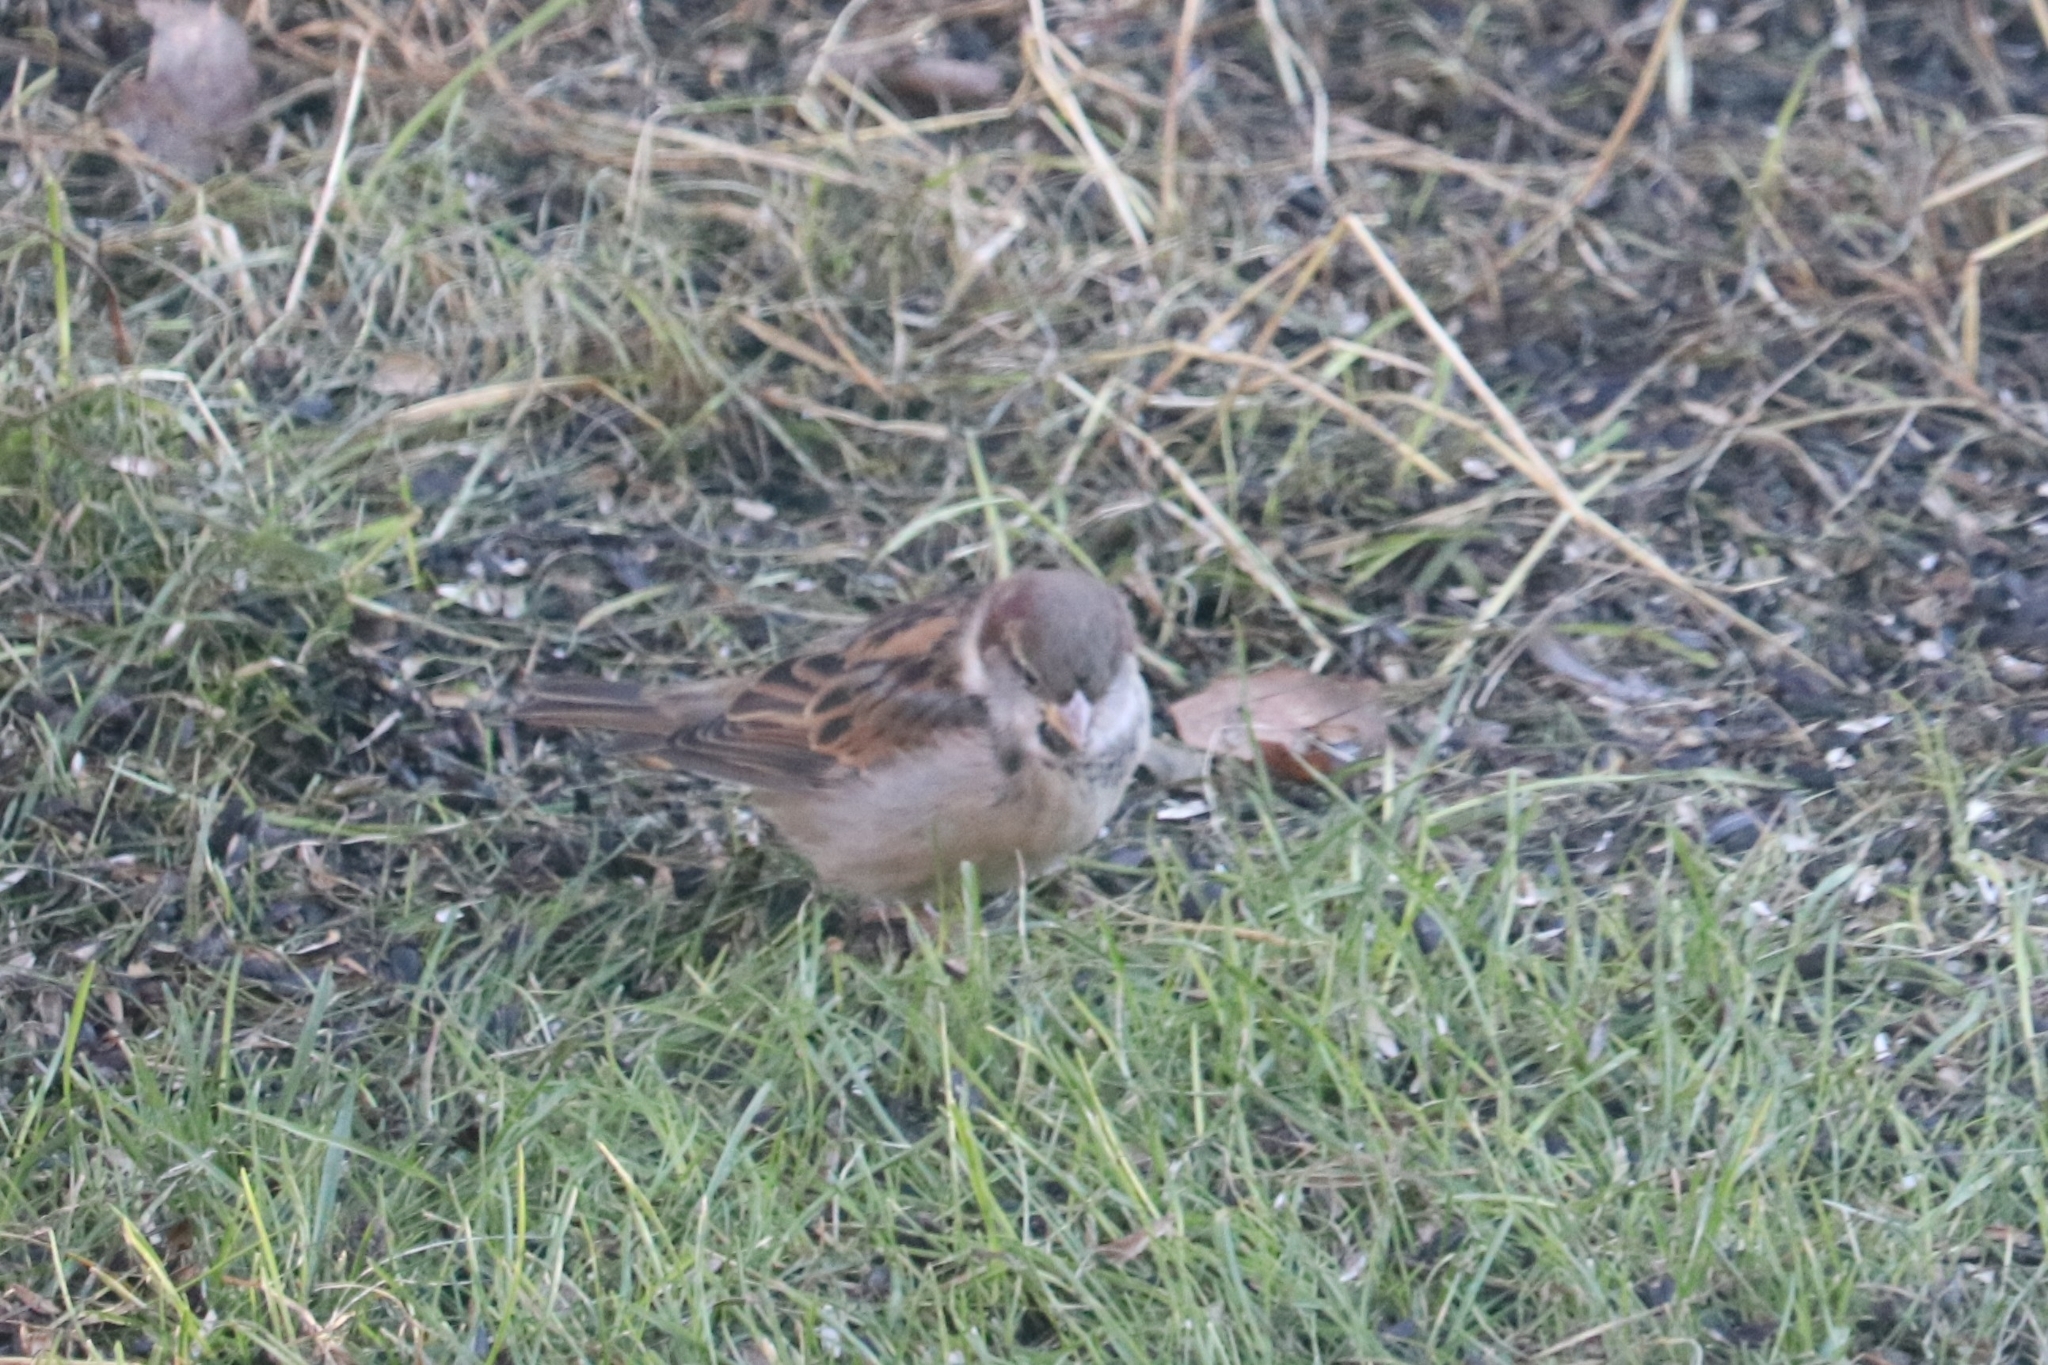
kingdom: Animalia
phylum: Chordata
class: Aves
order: Passeriformes
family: Passeridae
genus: Passer
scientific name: Passer domesticus
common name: House sparrow
